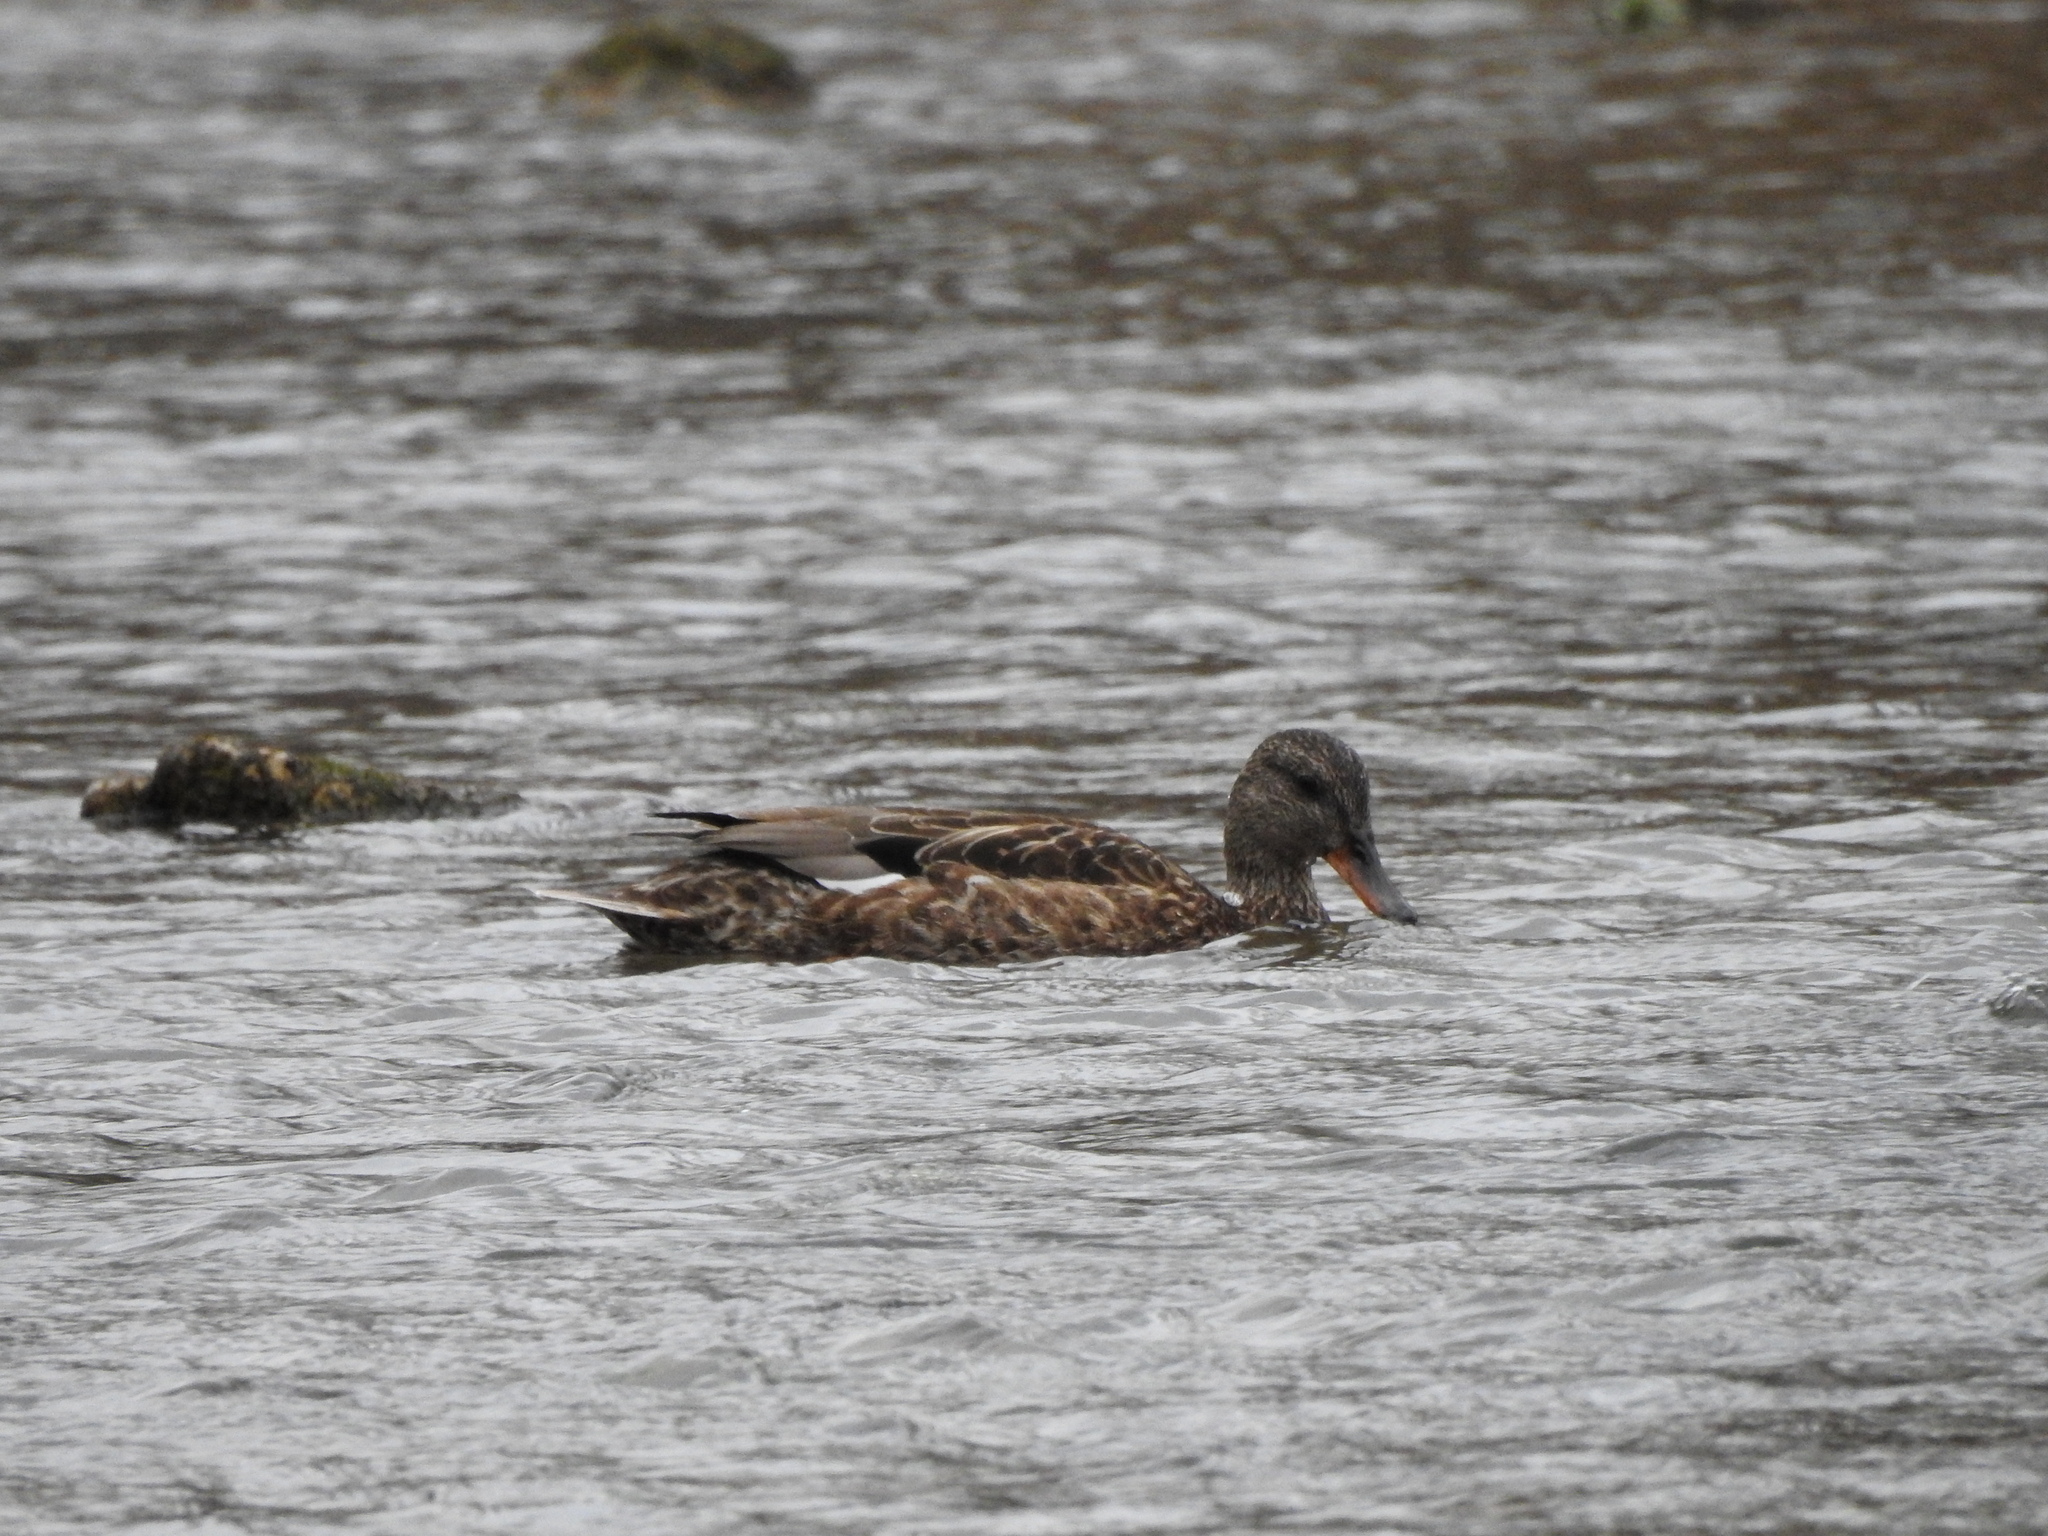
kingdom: Animalia
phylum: Chordata
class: Aves
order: Anseriformes
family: Anatidae
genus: Mareca
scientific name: Mareca strepera
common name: Gadwall
